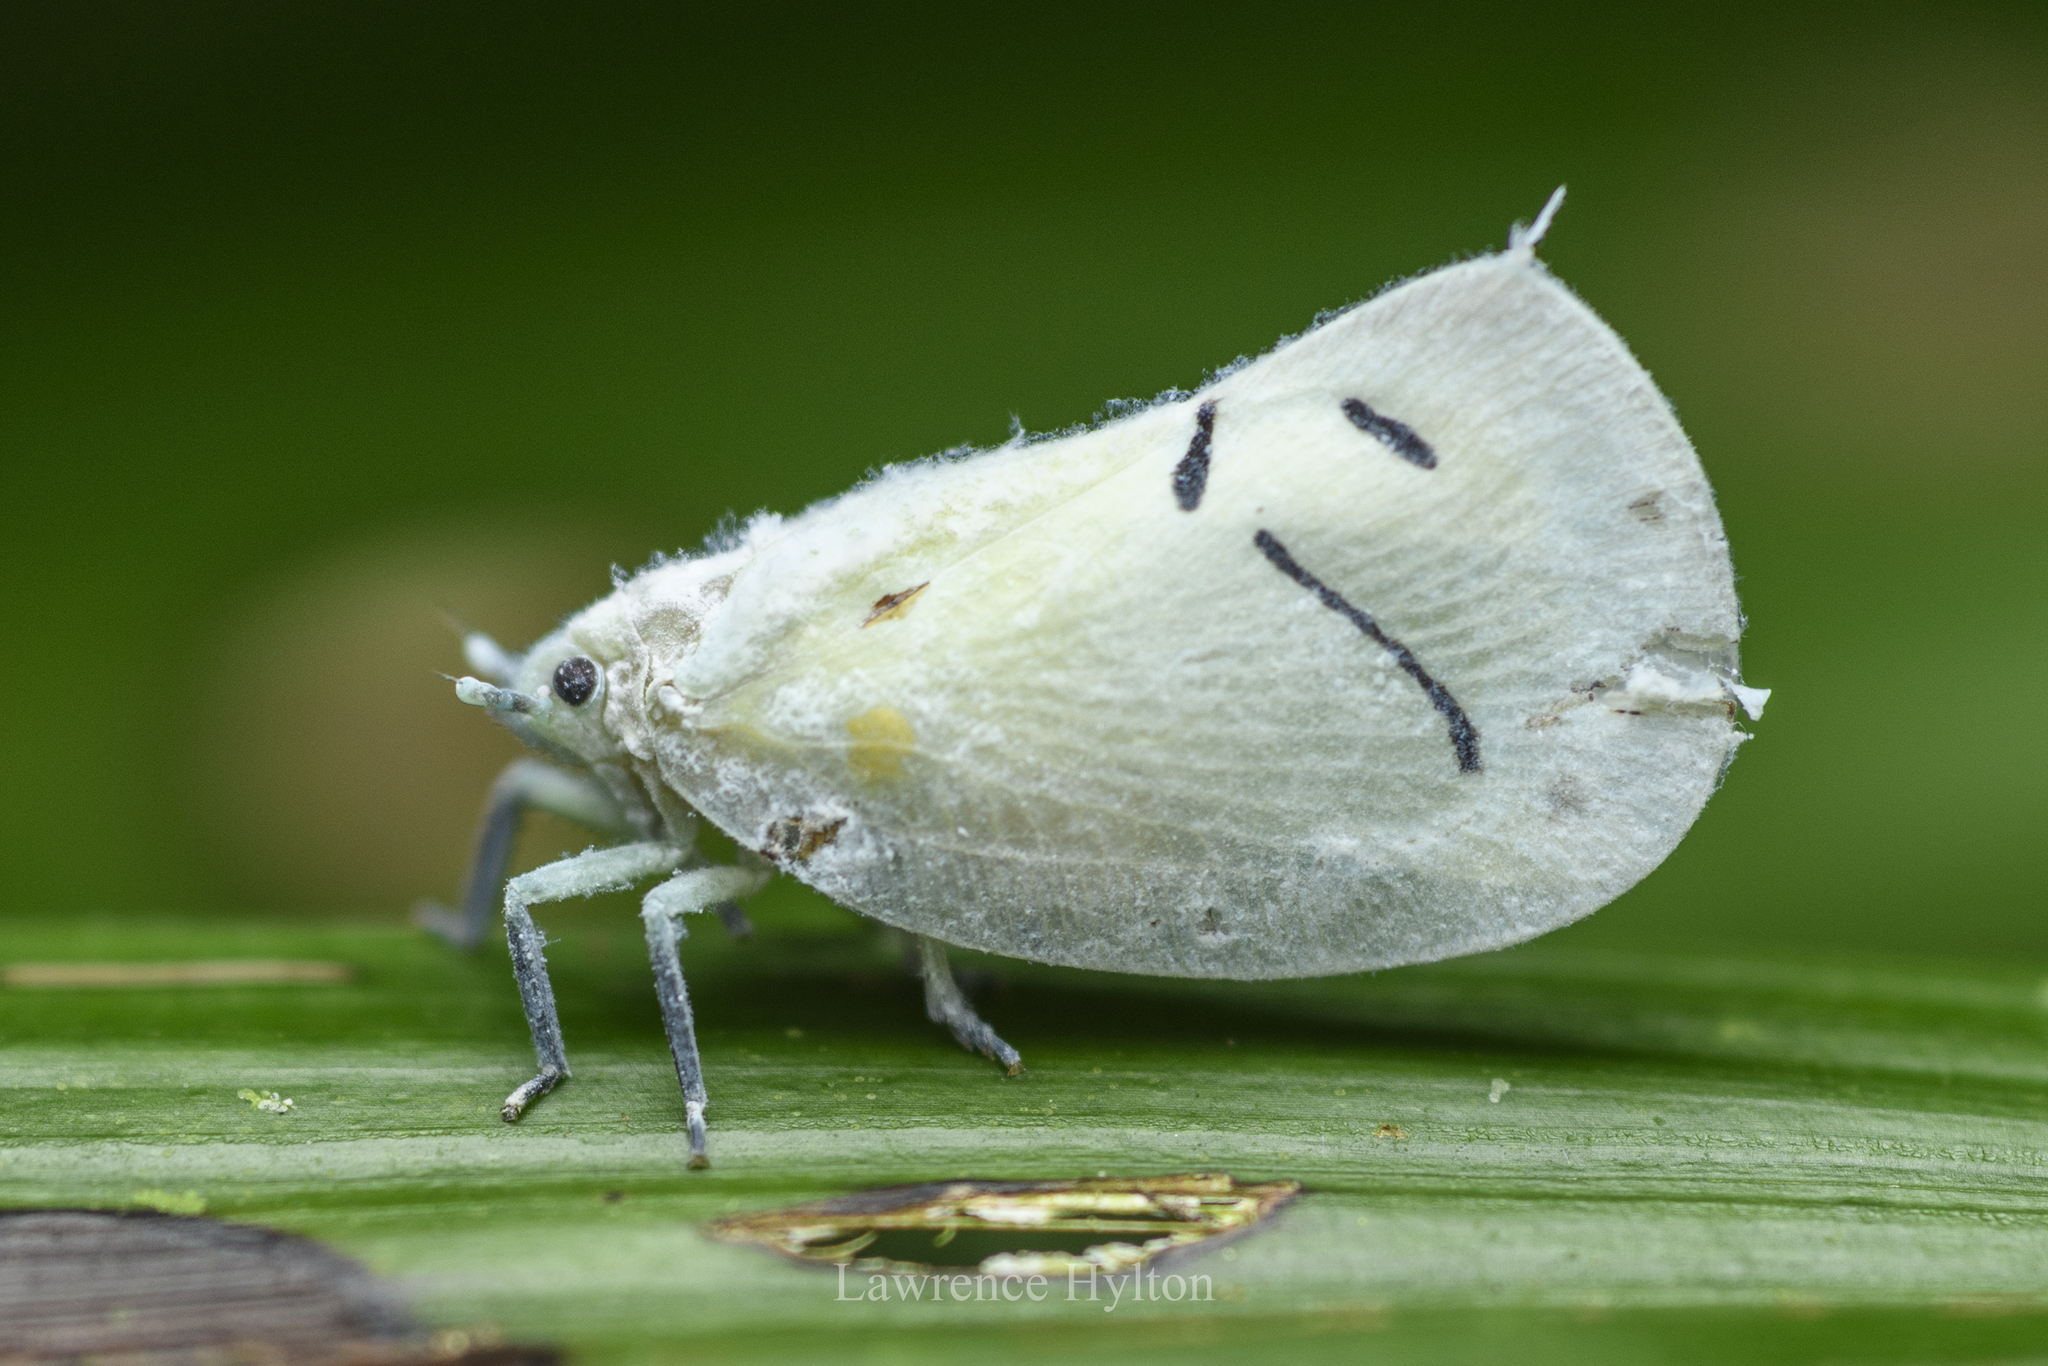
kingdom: Animalia
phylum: Arthropoda
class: Insecta
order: Hemiptera
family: Flatidae
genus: Cerynia
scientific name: Cerynia maria
